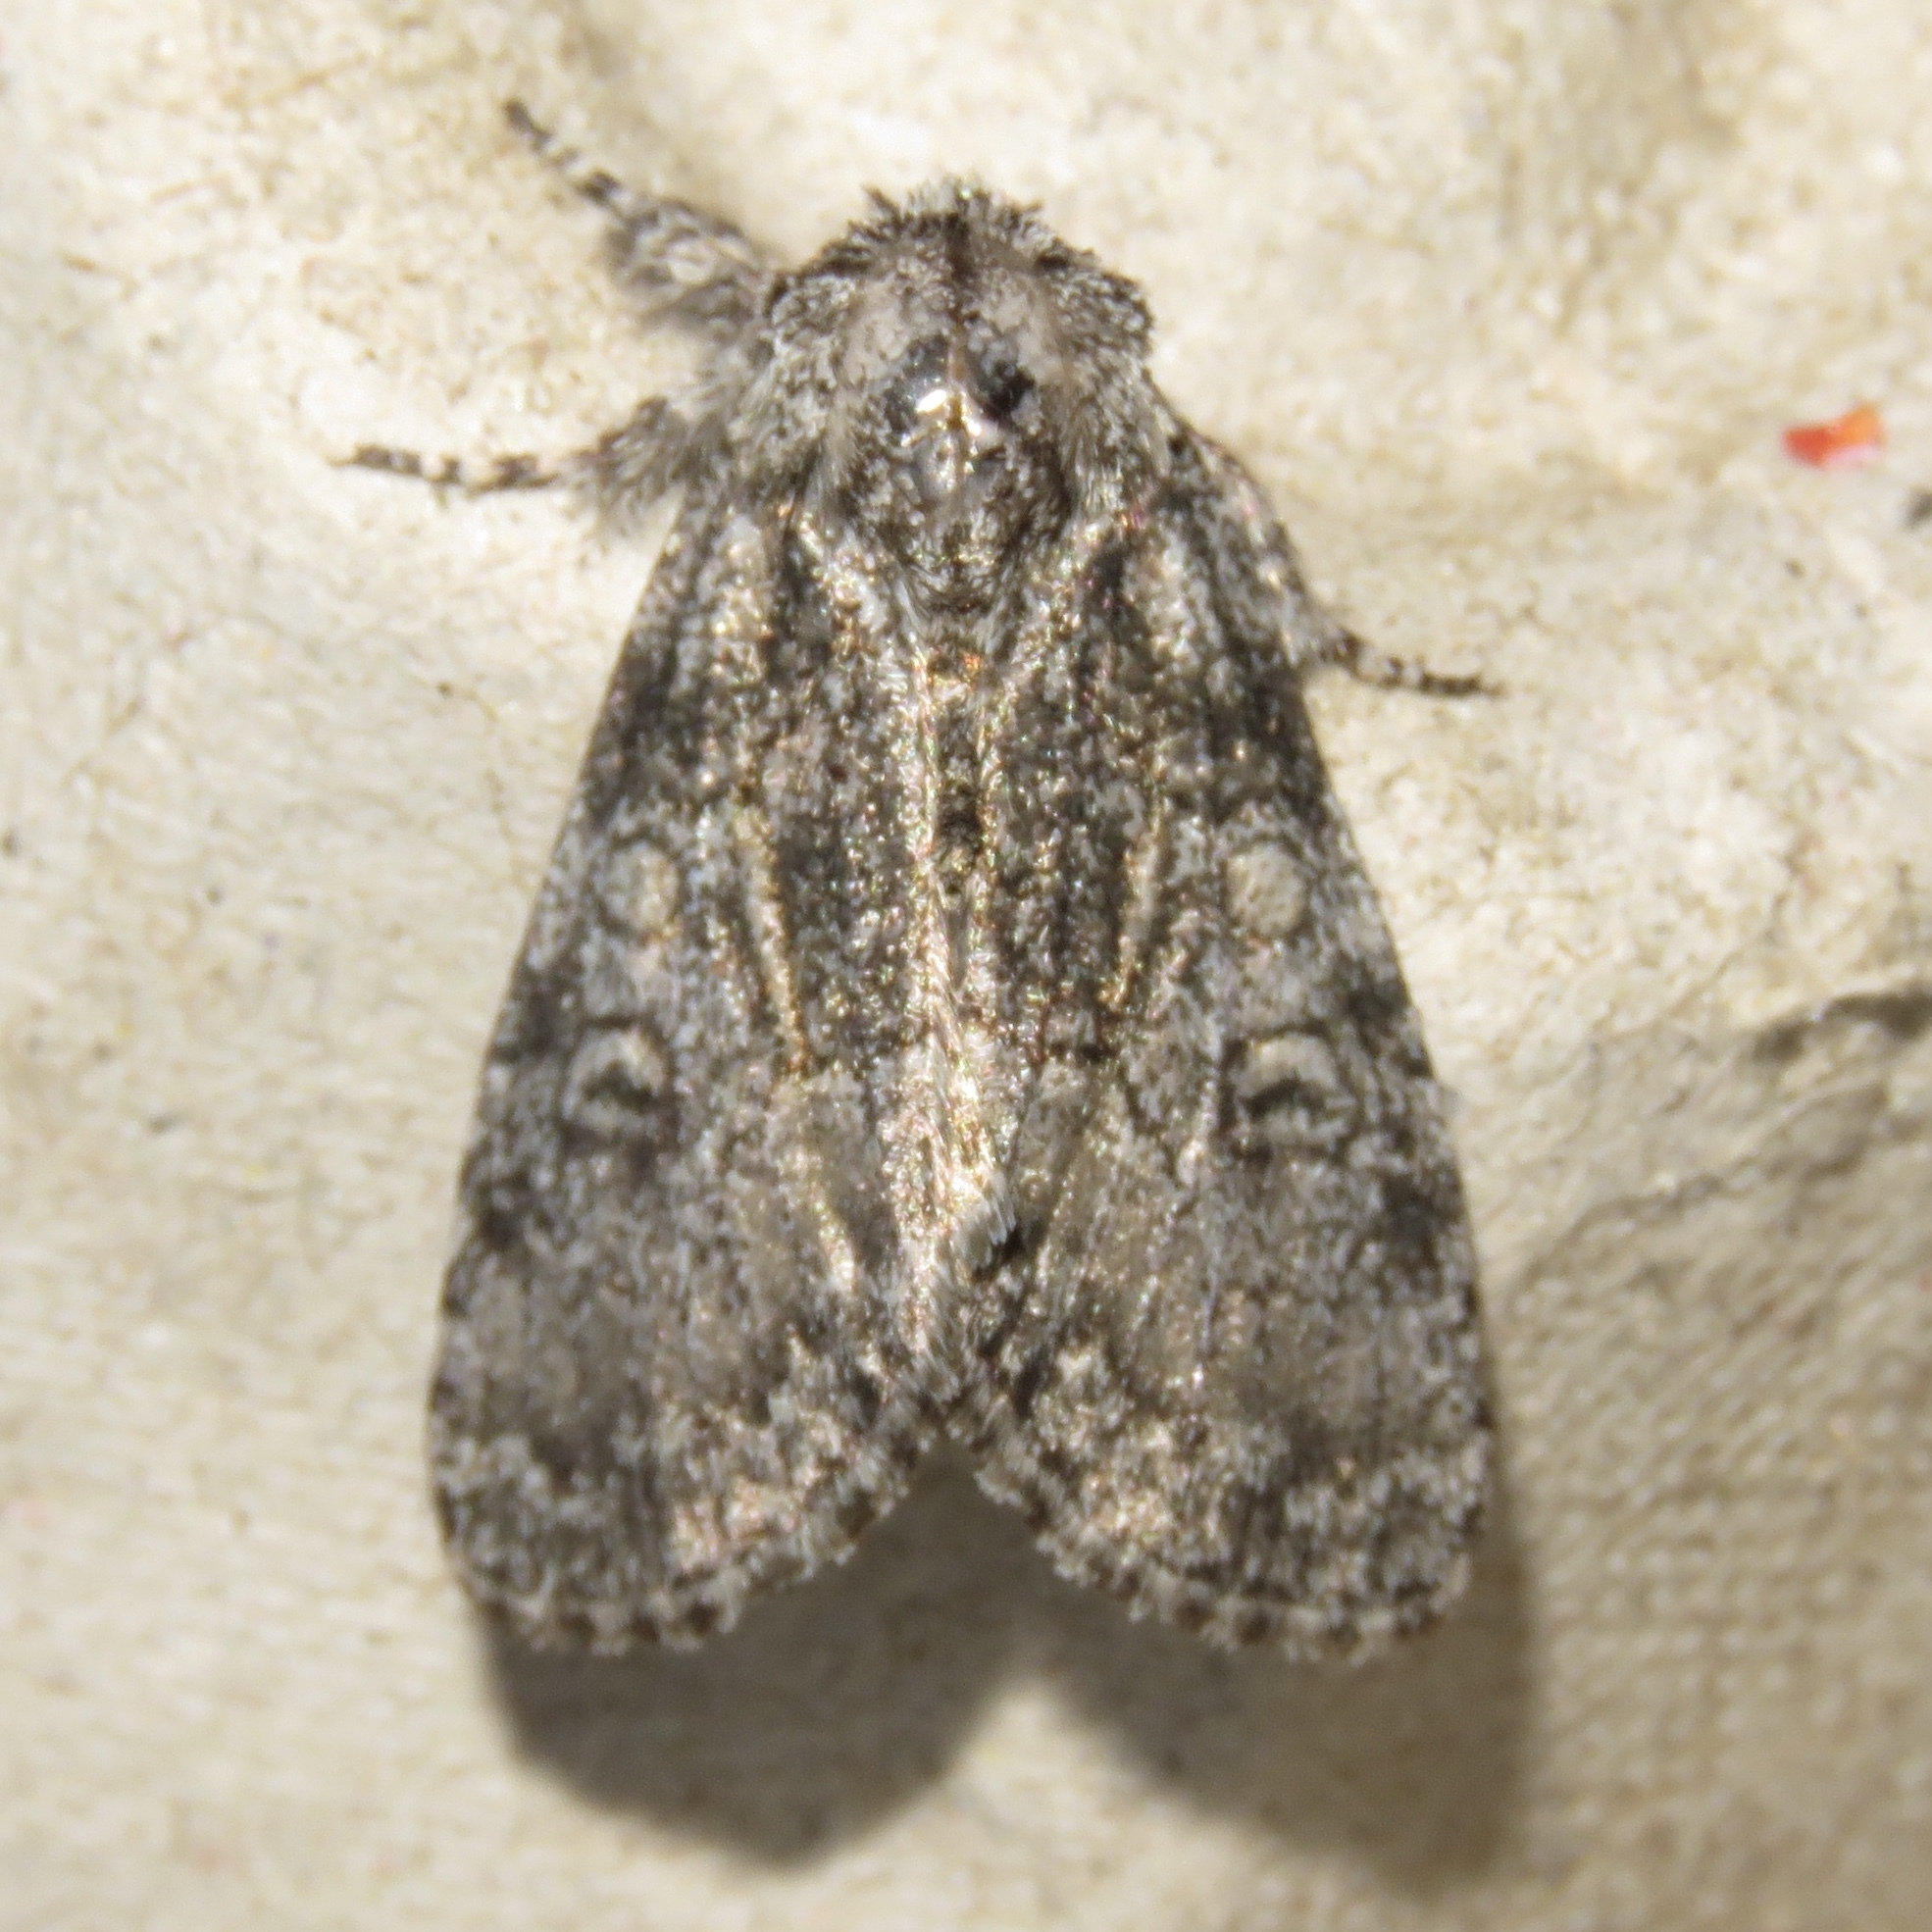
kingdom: Animalia
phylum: Arthropoda
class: Insecta
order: Lepidoptera
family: Noctuidae
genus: Raphia
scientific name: Raphia frater
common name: Brother
